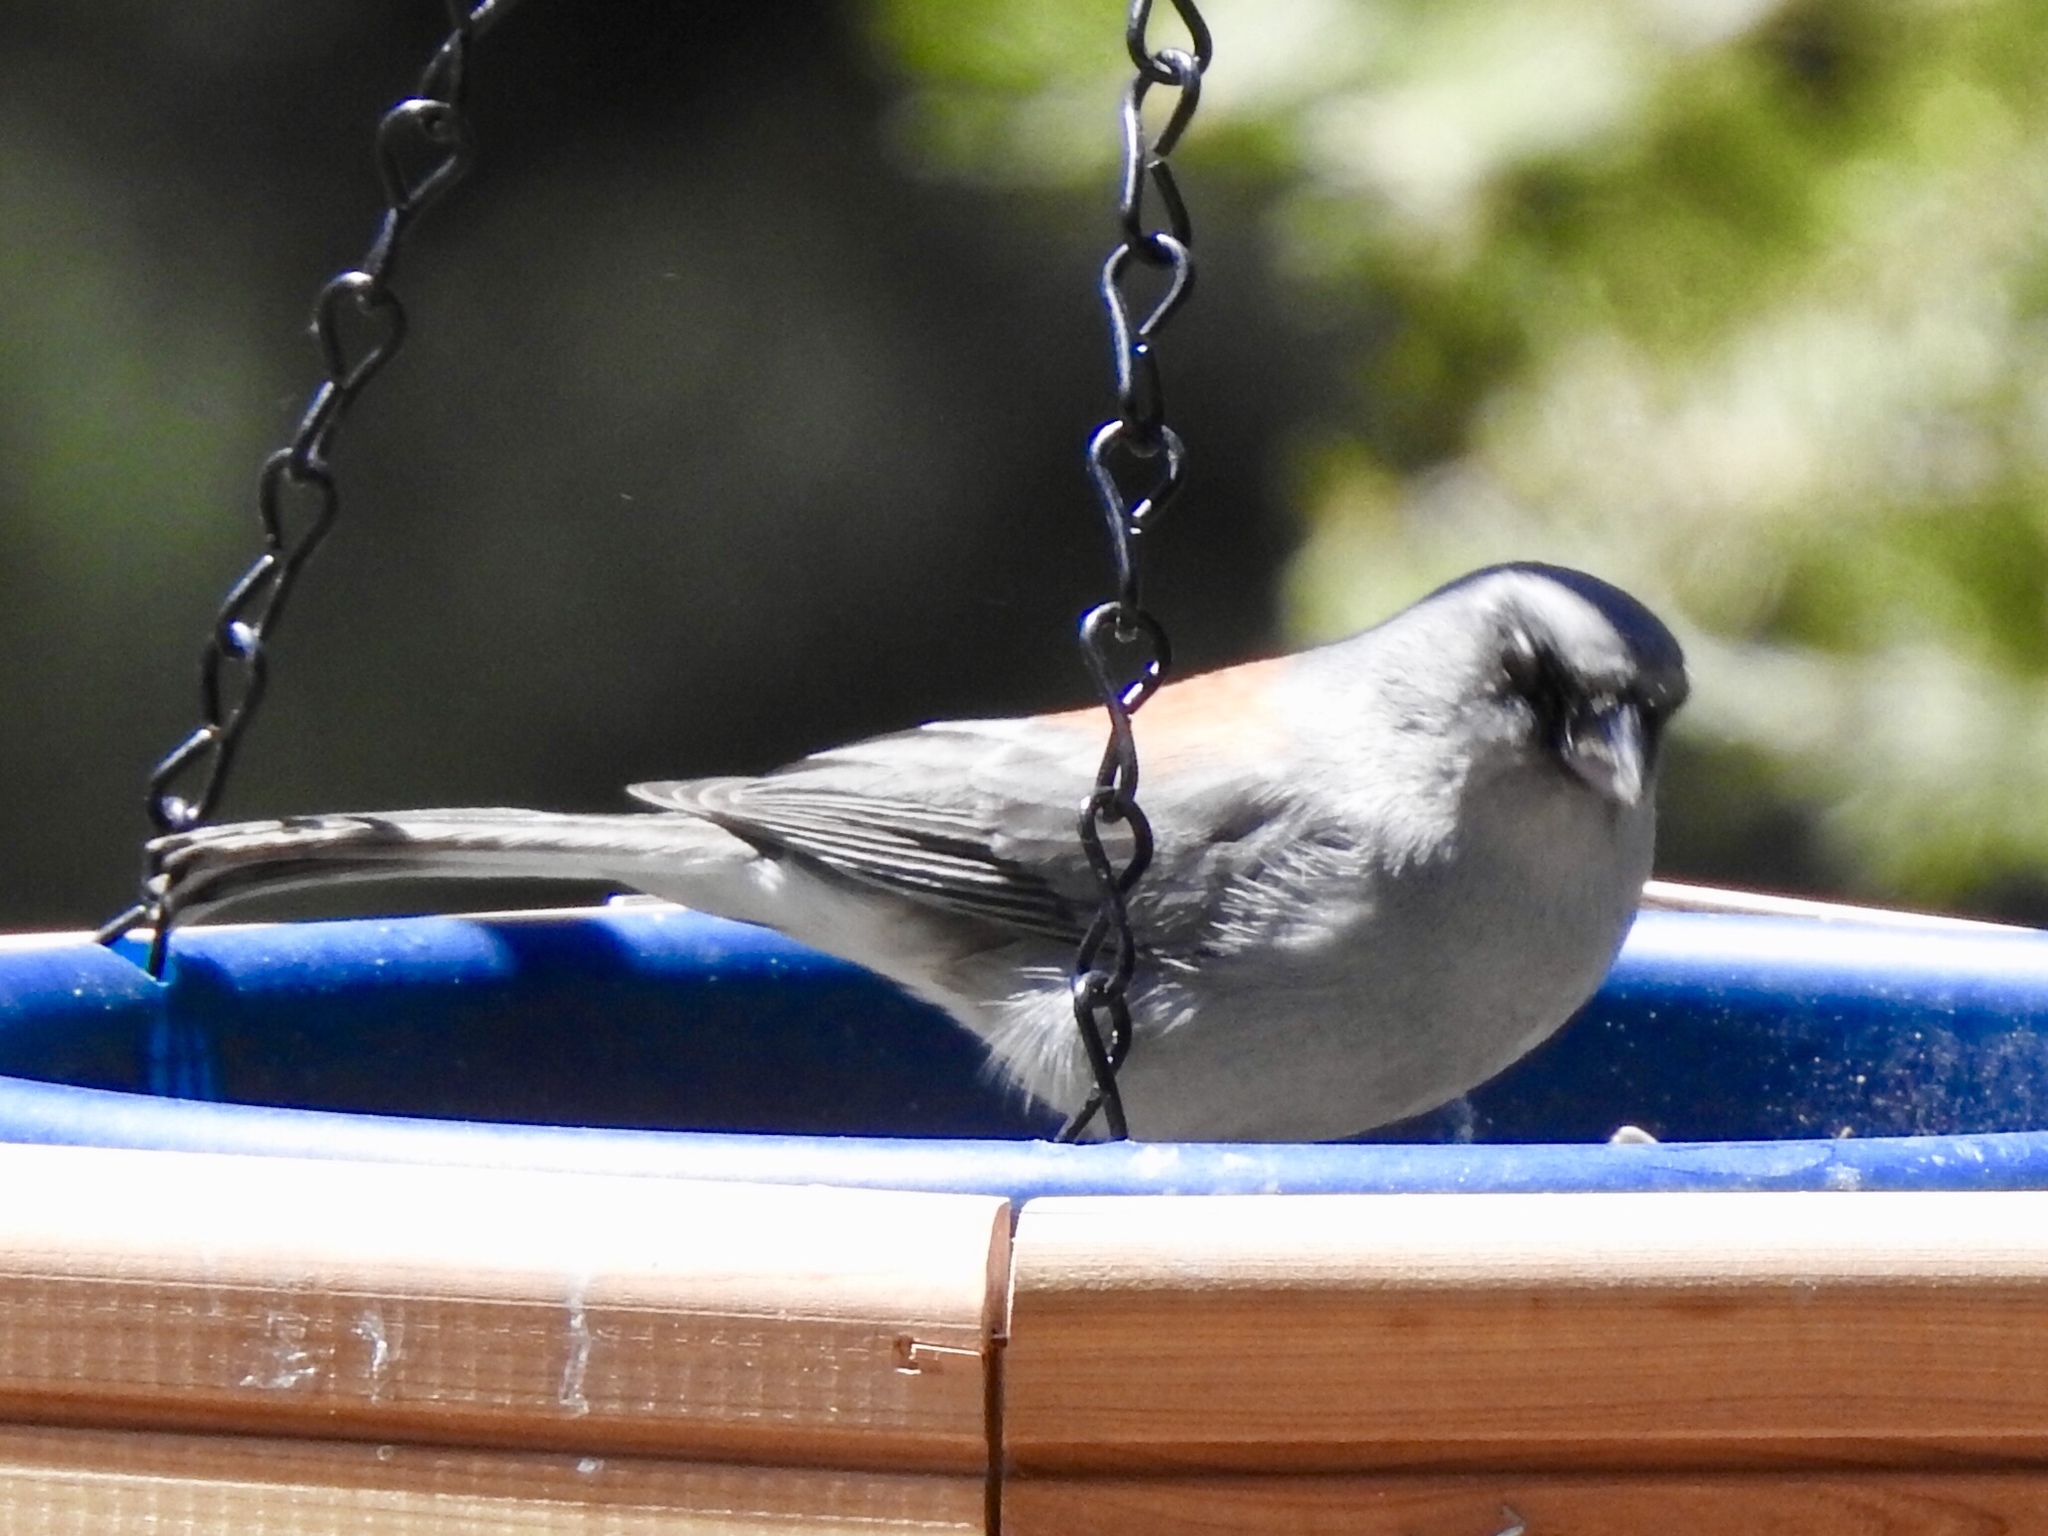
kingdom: Animalia
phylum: Chordata
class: Aves
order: Passeriformes
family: Passerellidae
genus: Junco
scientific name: Junco hyemalis
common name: Dark-eyed junco
